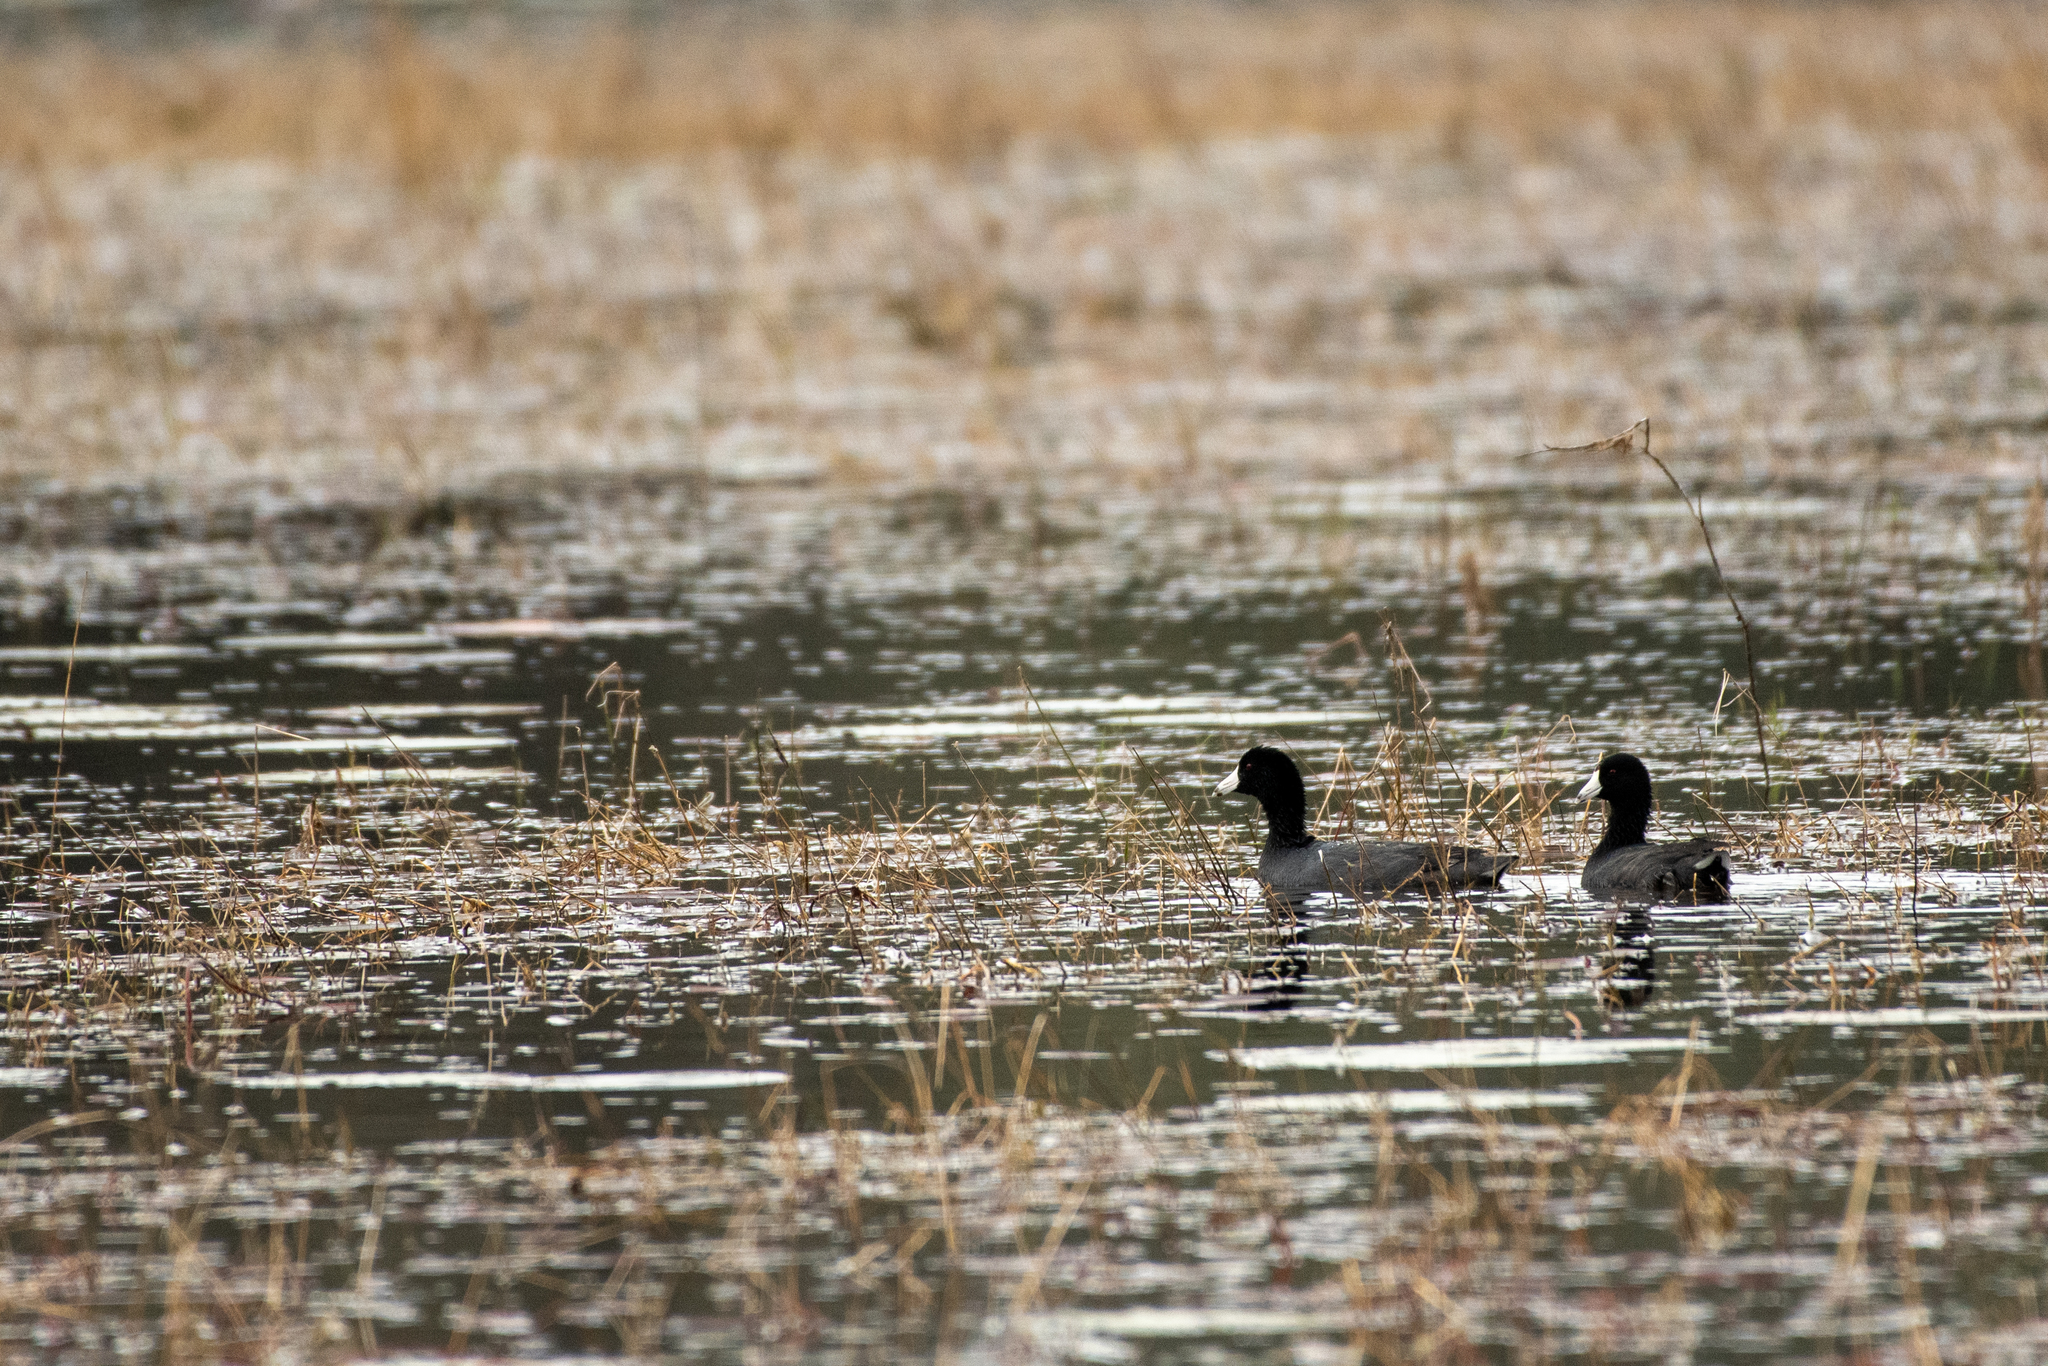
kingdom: Animalia
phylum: Chordata
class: Aves
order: Gruiformes
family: Rallidae
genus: Fulica
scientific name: Fulica americana
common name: American coot
